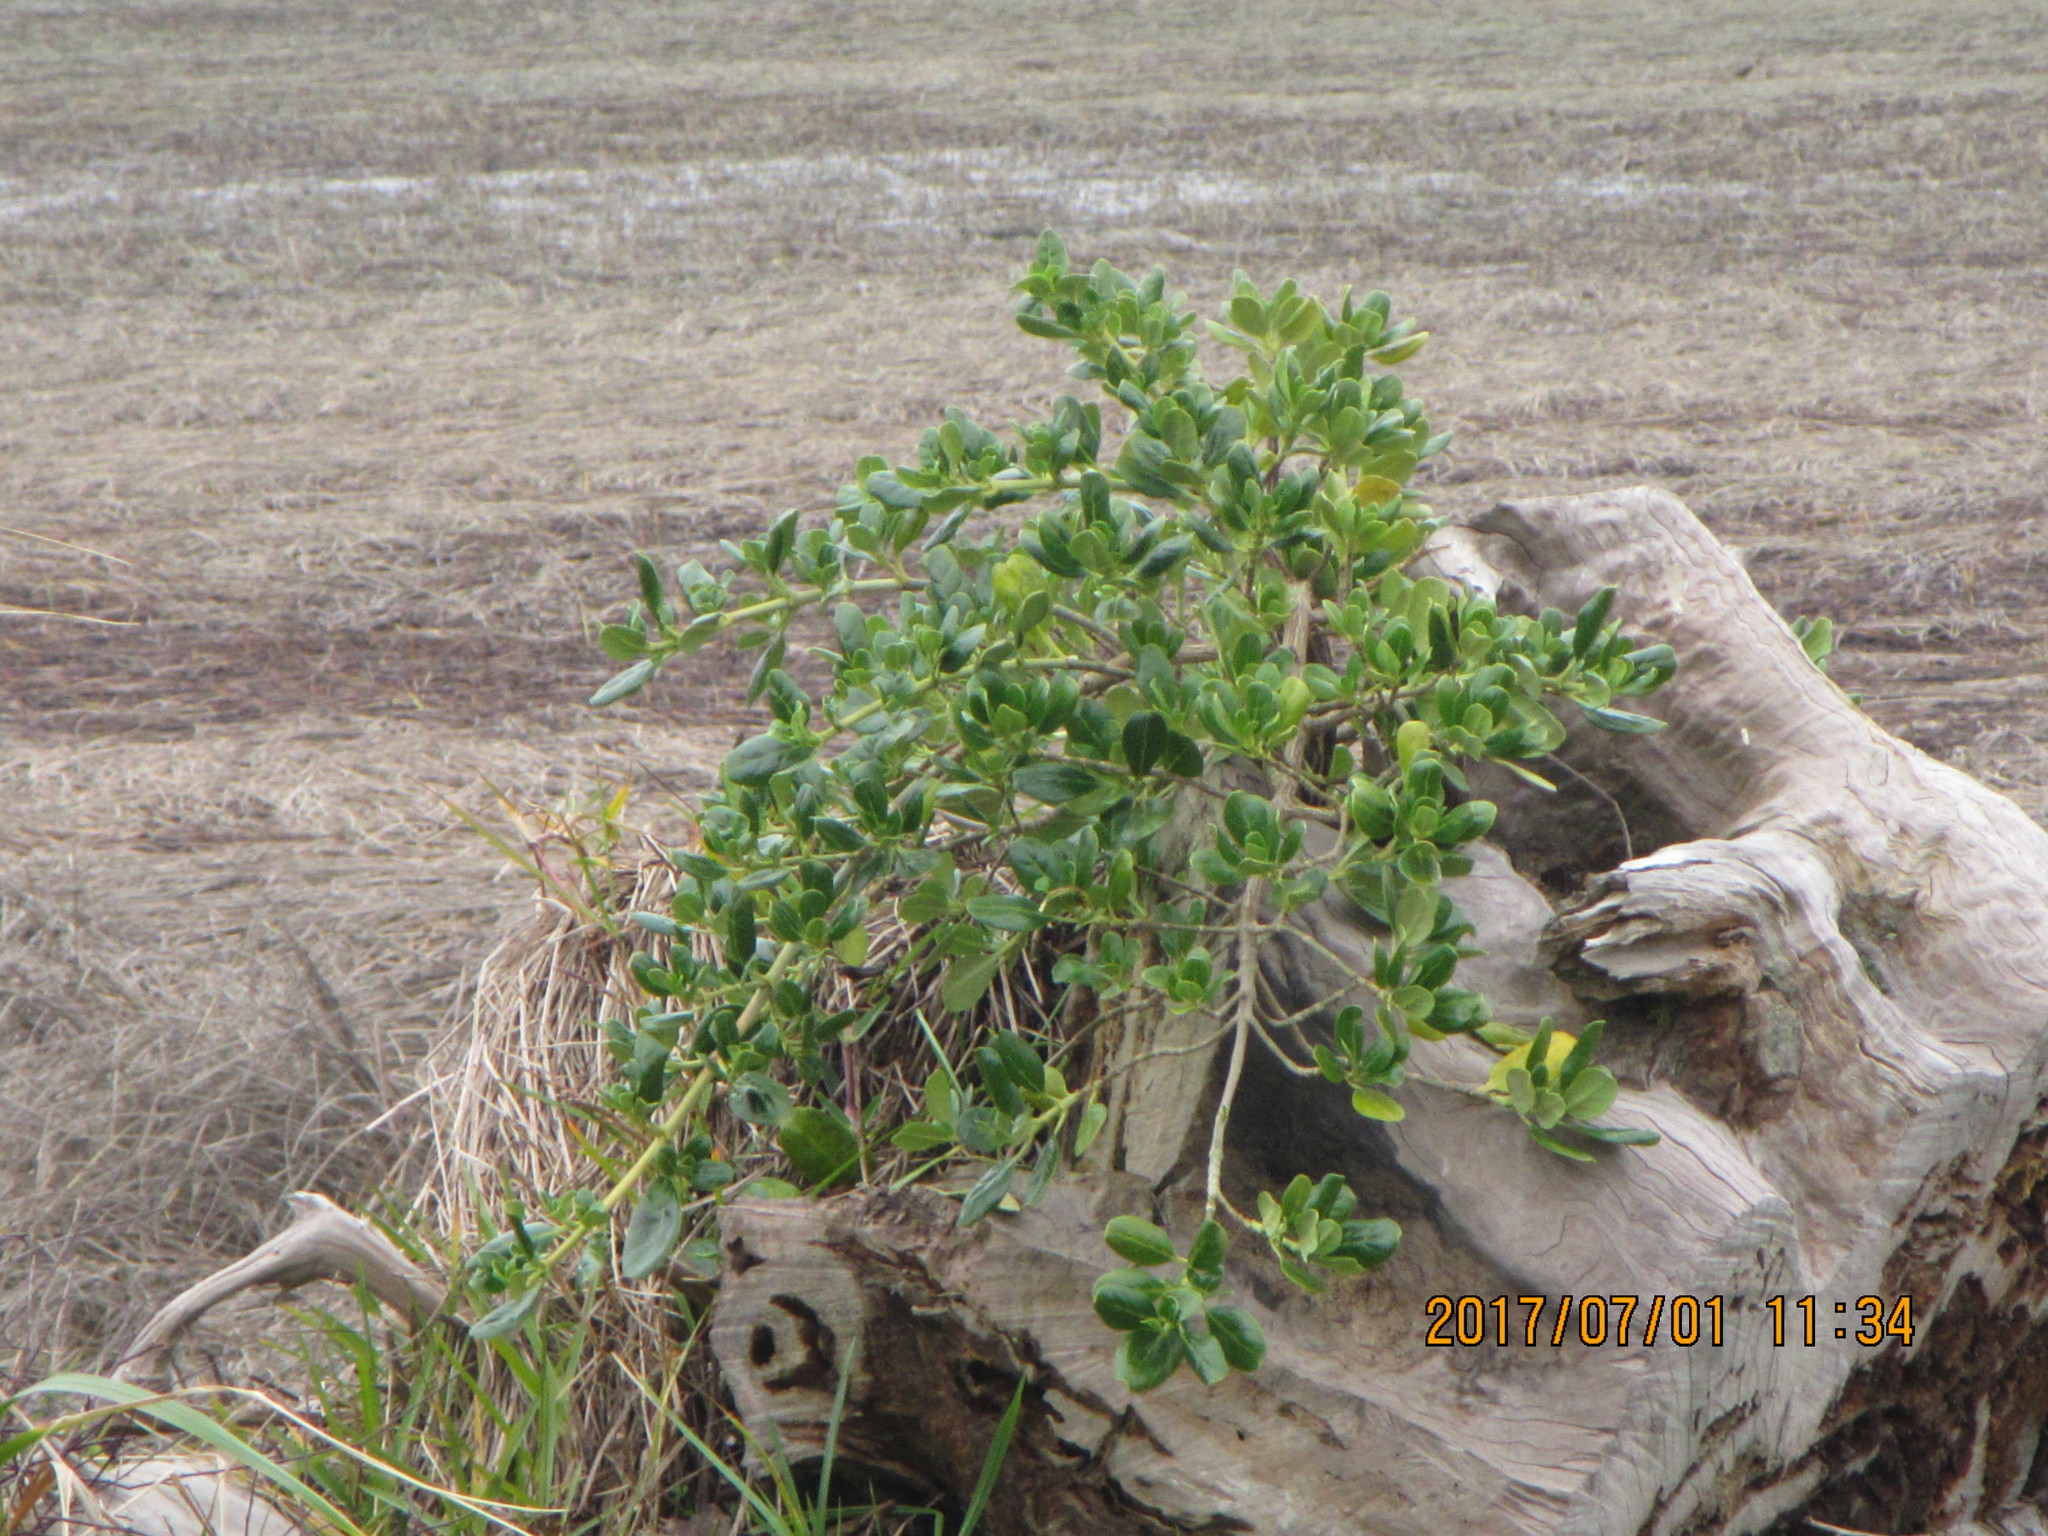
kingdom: Plantae
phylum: Tracheophyta
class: Magnoliopsida
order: Gentianales
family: Rubiaceae
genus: Coprosma
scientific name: Coprosma repens
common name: Tree bedstraw
